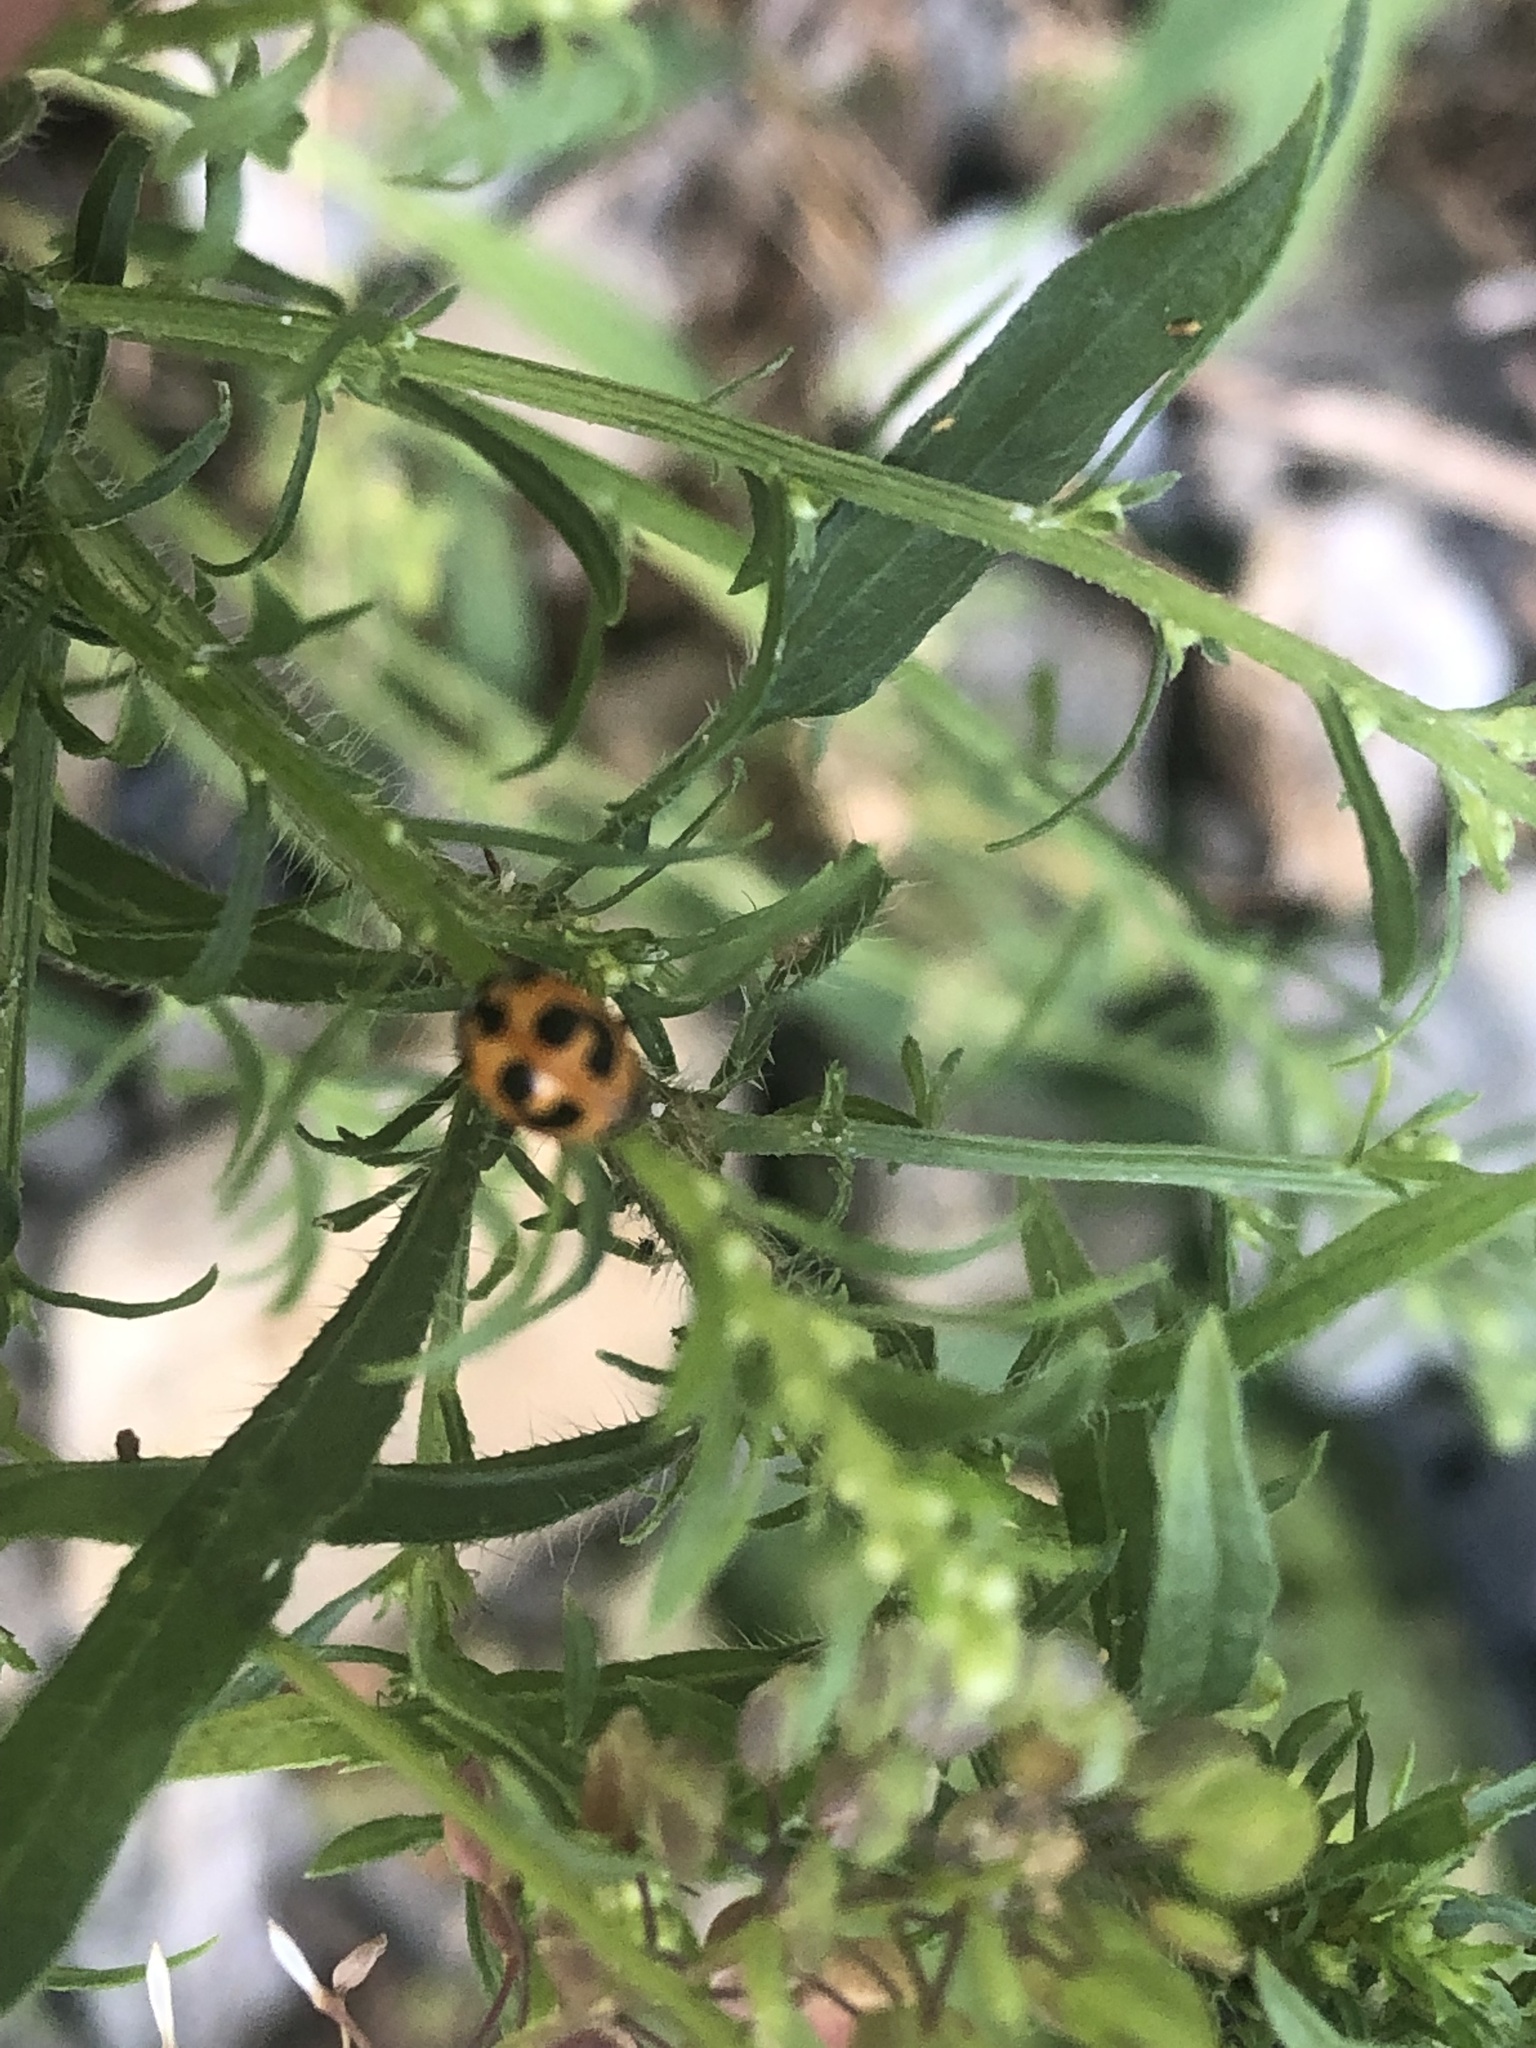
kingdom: Animalia
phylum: Arthropoda
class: Insecta
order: Coleoptera
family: Coccinellidae
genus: Hippodamia
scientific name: Hippodamia parenthesis
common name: Parenthesis lady beetle
